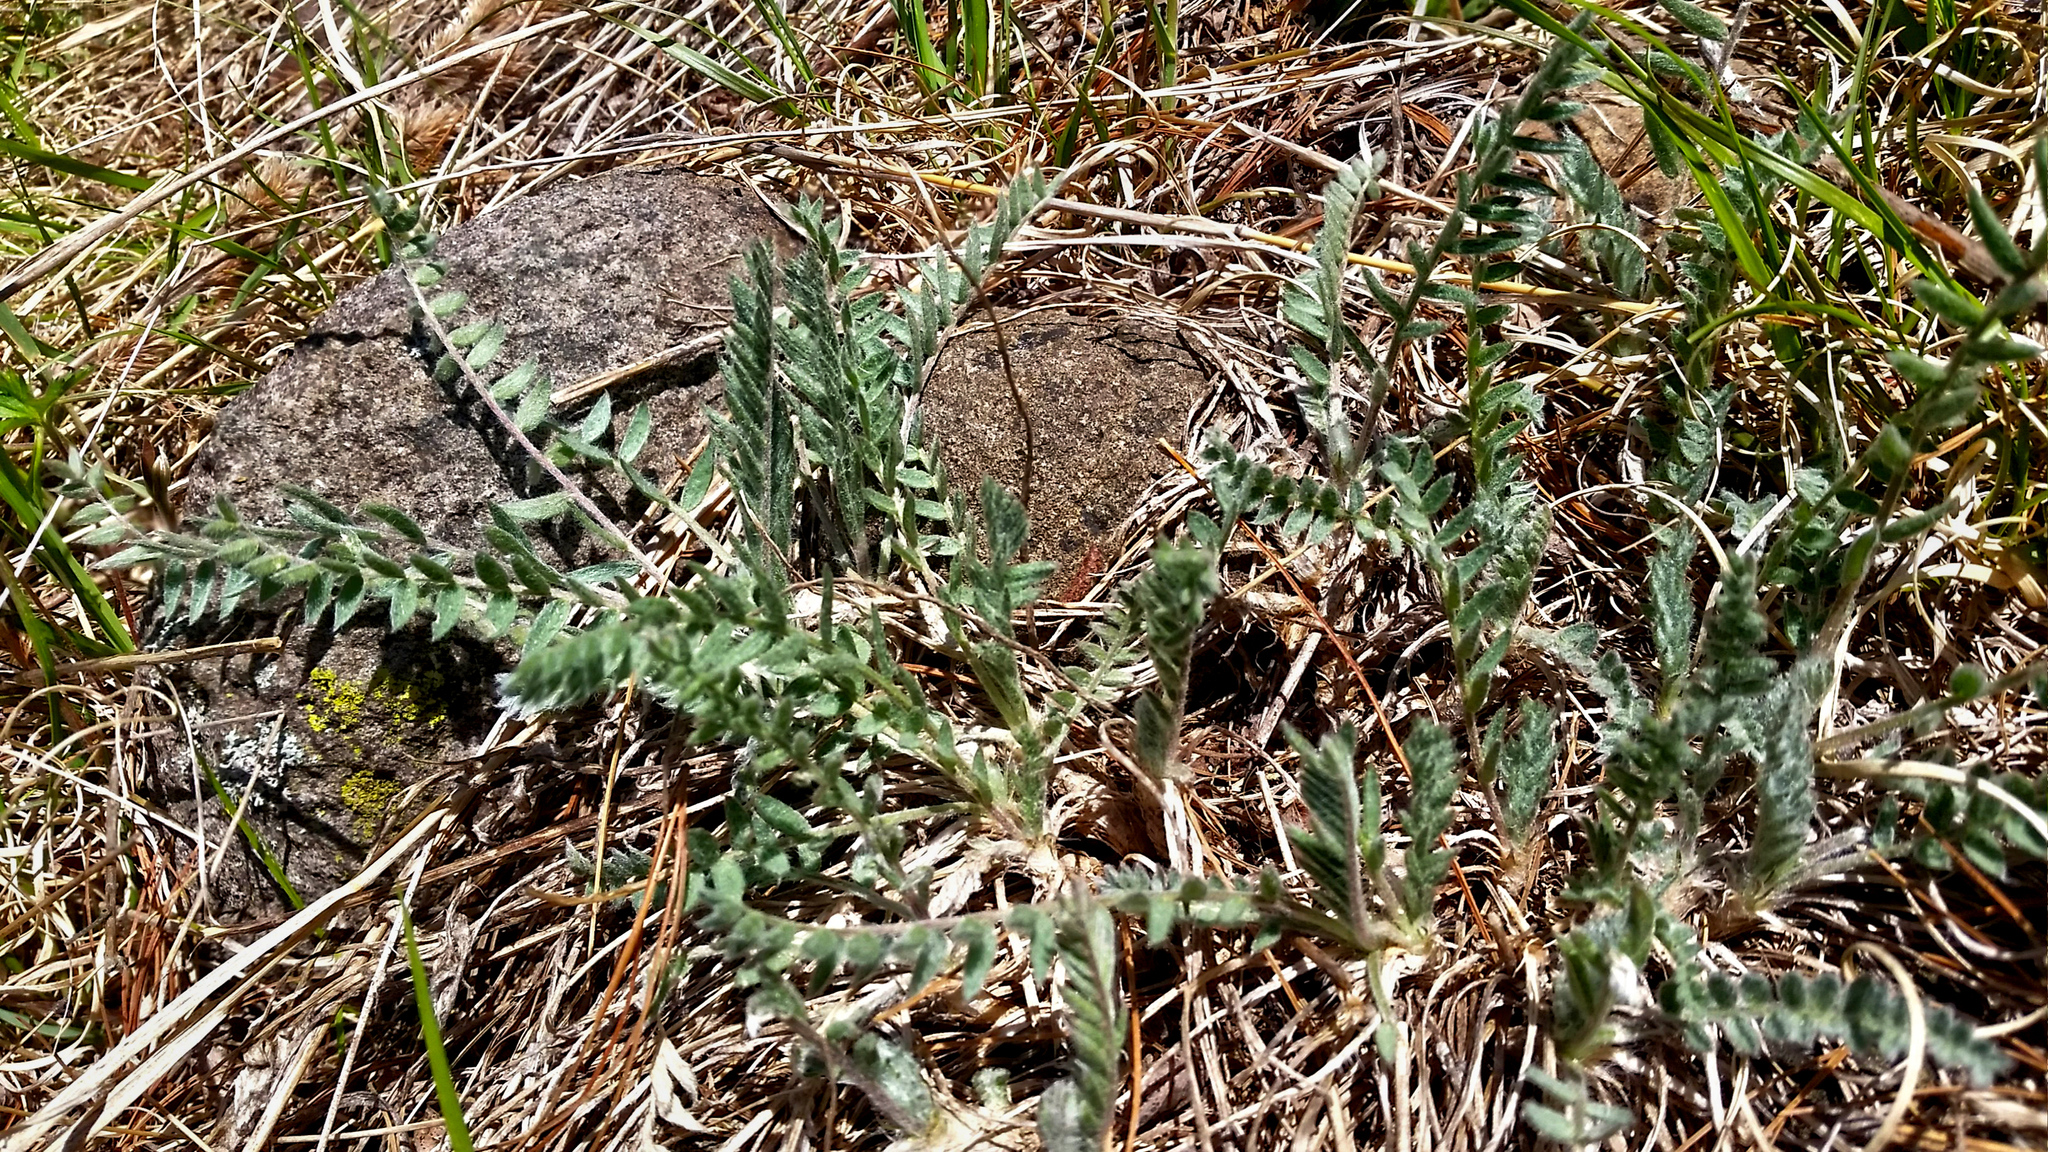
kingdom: Plantae
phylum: Tracheophyta
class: Magnoliopsida
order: Fabales
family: Fabaceae
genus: Oxytropis
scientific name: Oxytropis campestris
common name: Field locoweed
